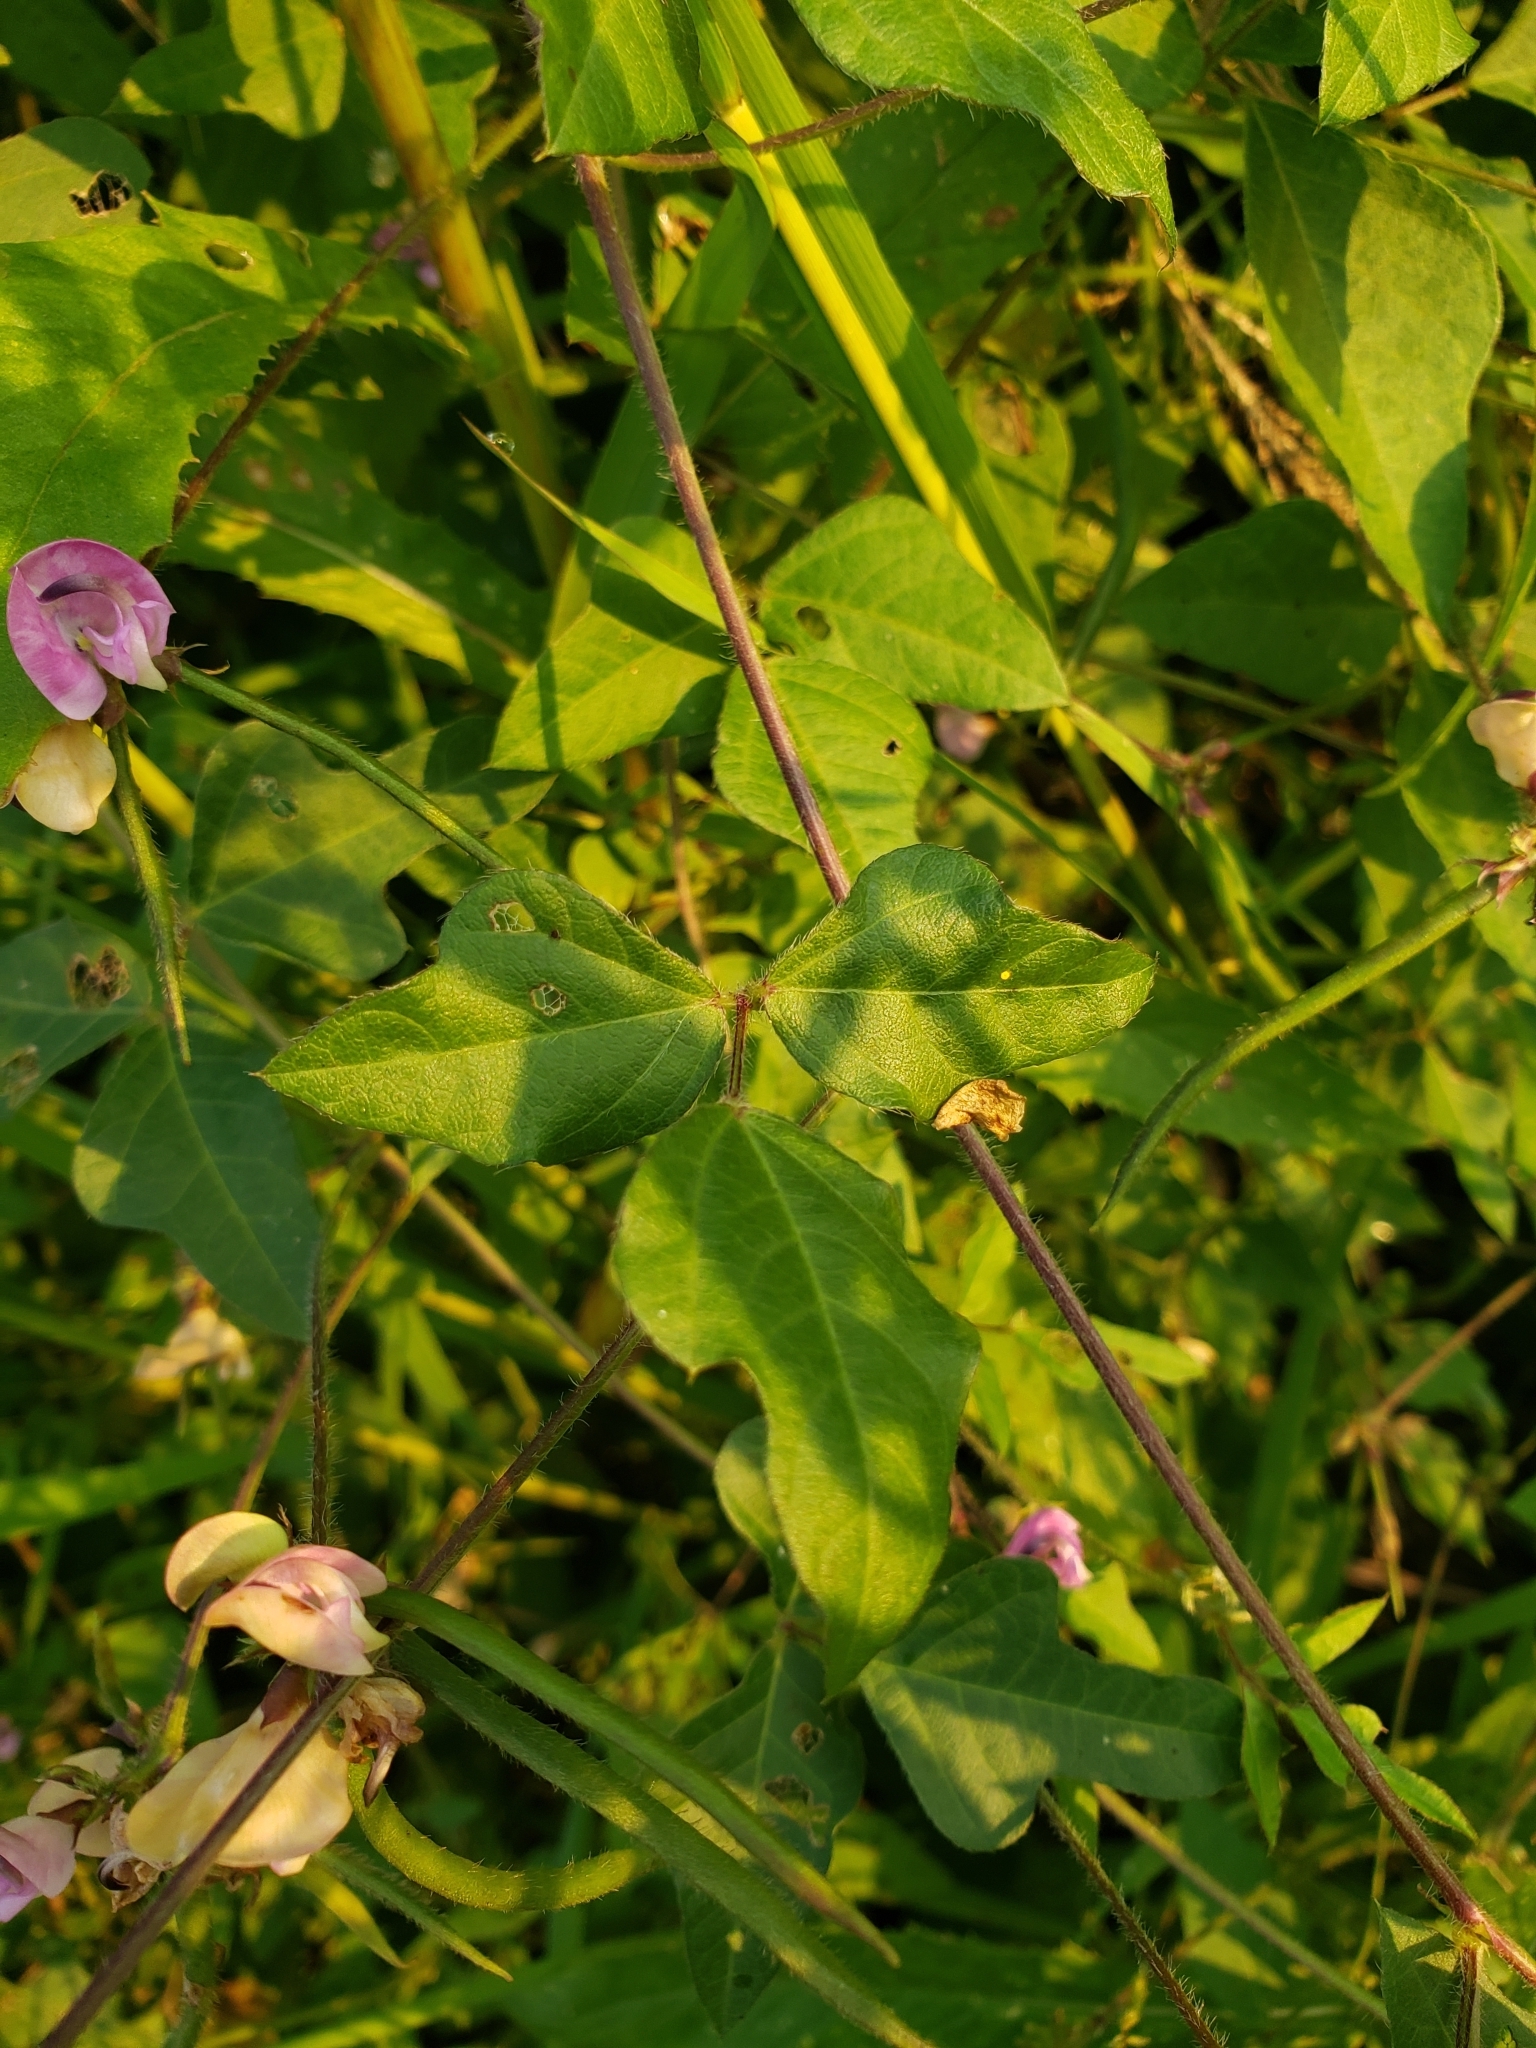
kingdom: Plantae
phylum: Tracheophyta
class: Magnoliopsida
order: Fabales
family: Fabaceae
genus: Strophostyles
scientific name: Strophostyles helvola
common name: Trailing wild bean
